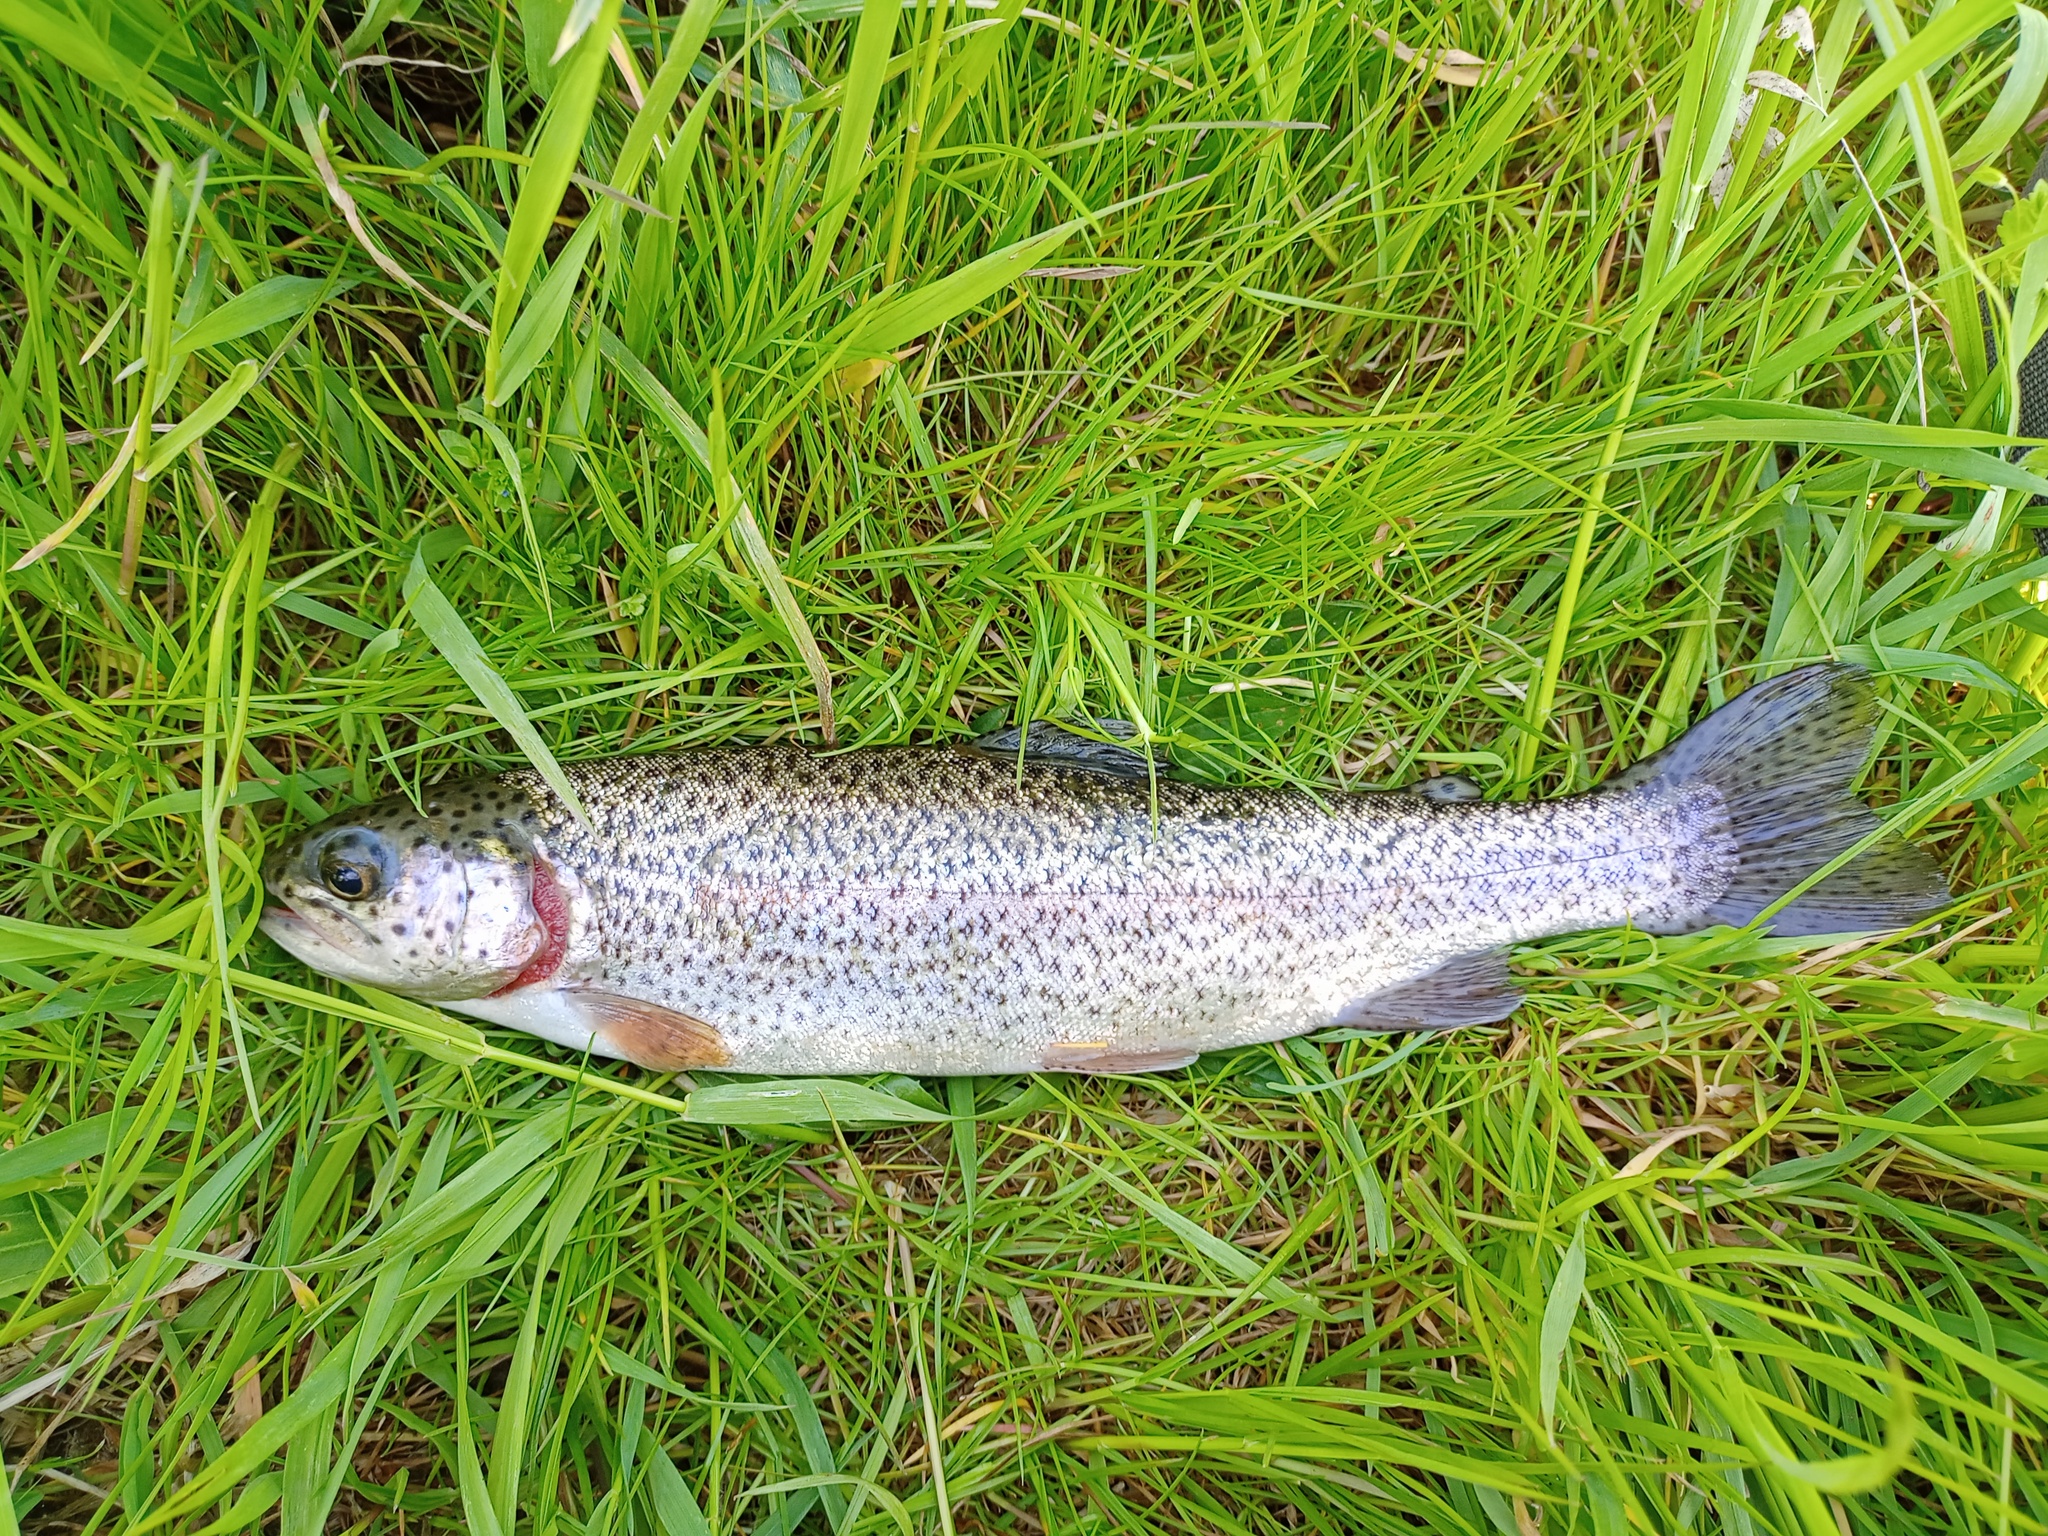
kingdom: Animalia
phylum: Chordata
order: Salmoniformes
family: Salmonidae
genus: Oncorhynchus
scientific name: Oncorhynchus mykiss
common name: Rainbow trout
